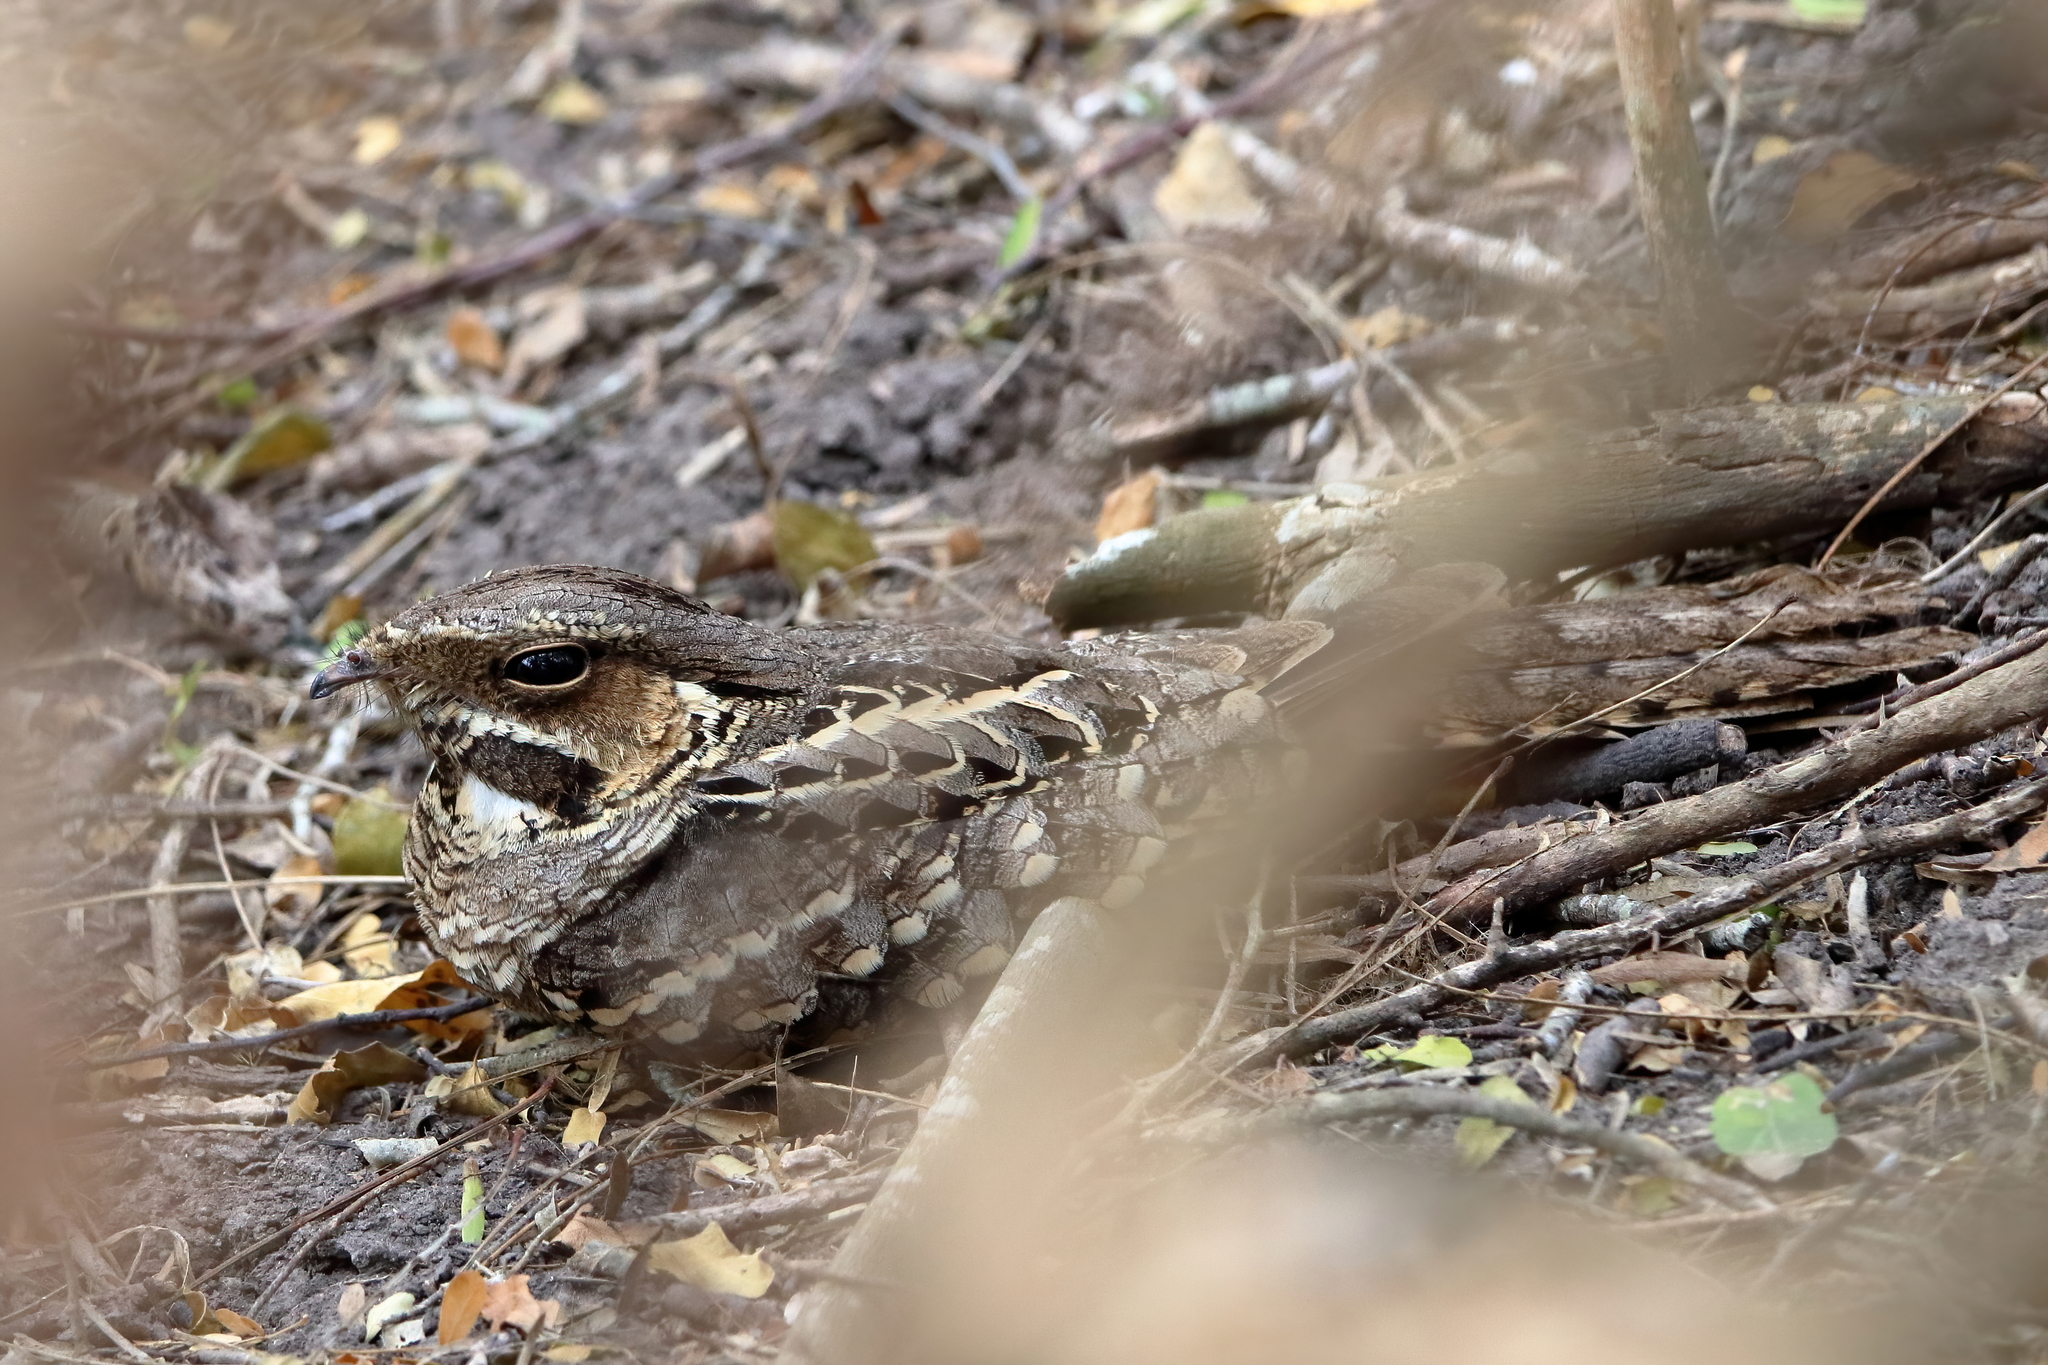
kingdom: Animalia
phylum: Chordata
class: Aves
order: Caprimulgiformes
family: Caprimulgidae
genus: Nyctidromus
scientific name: Nyctidromus albicollis
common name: Pauraque
